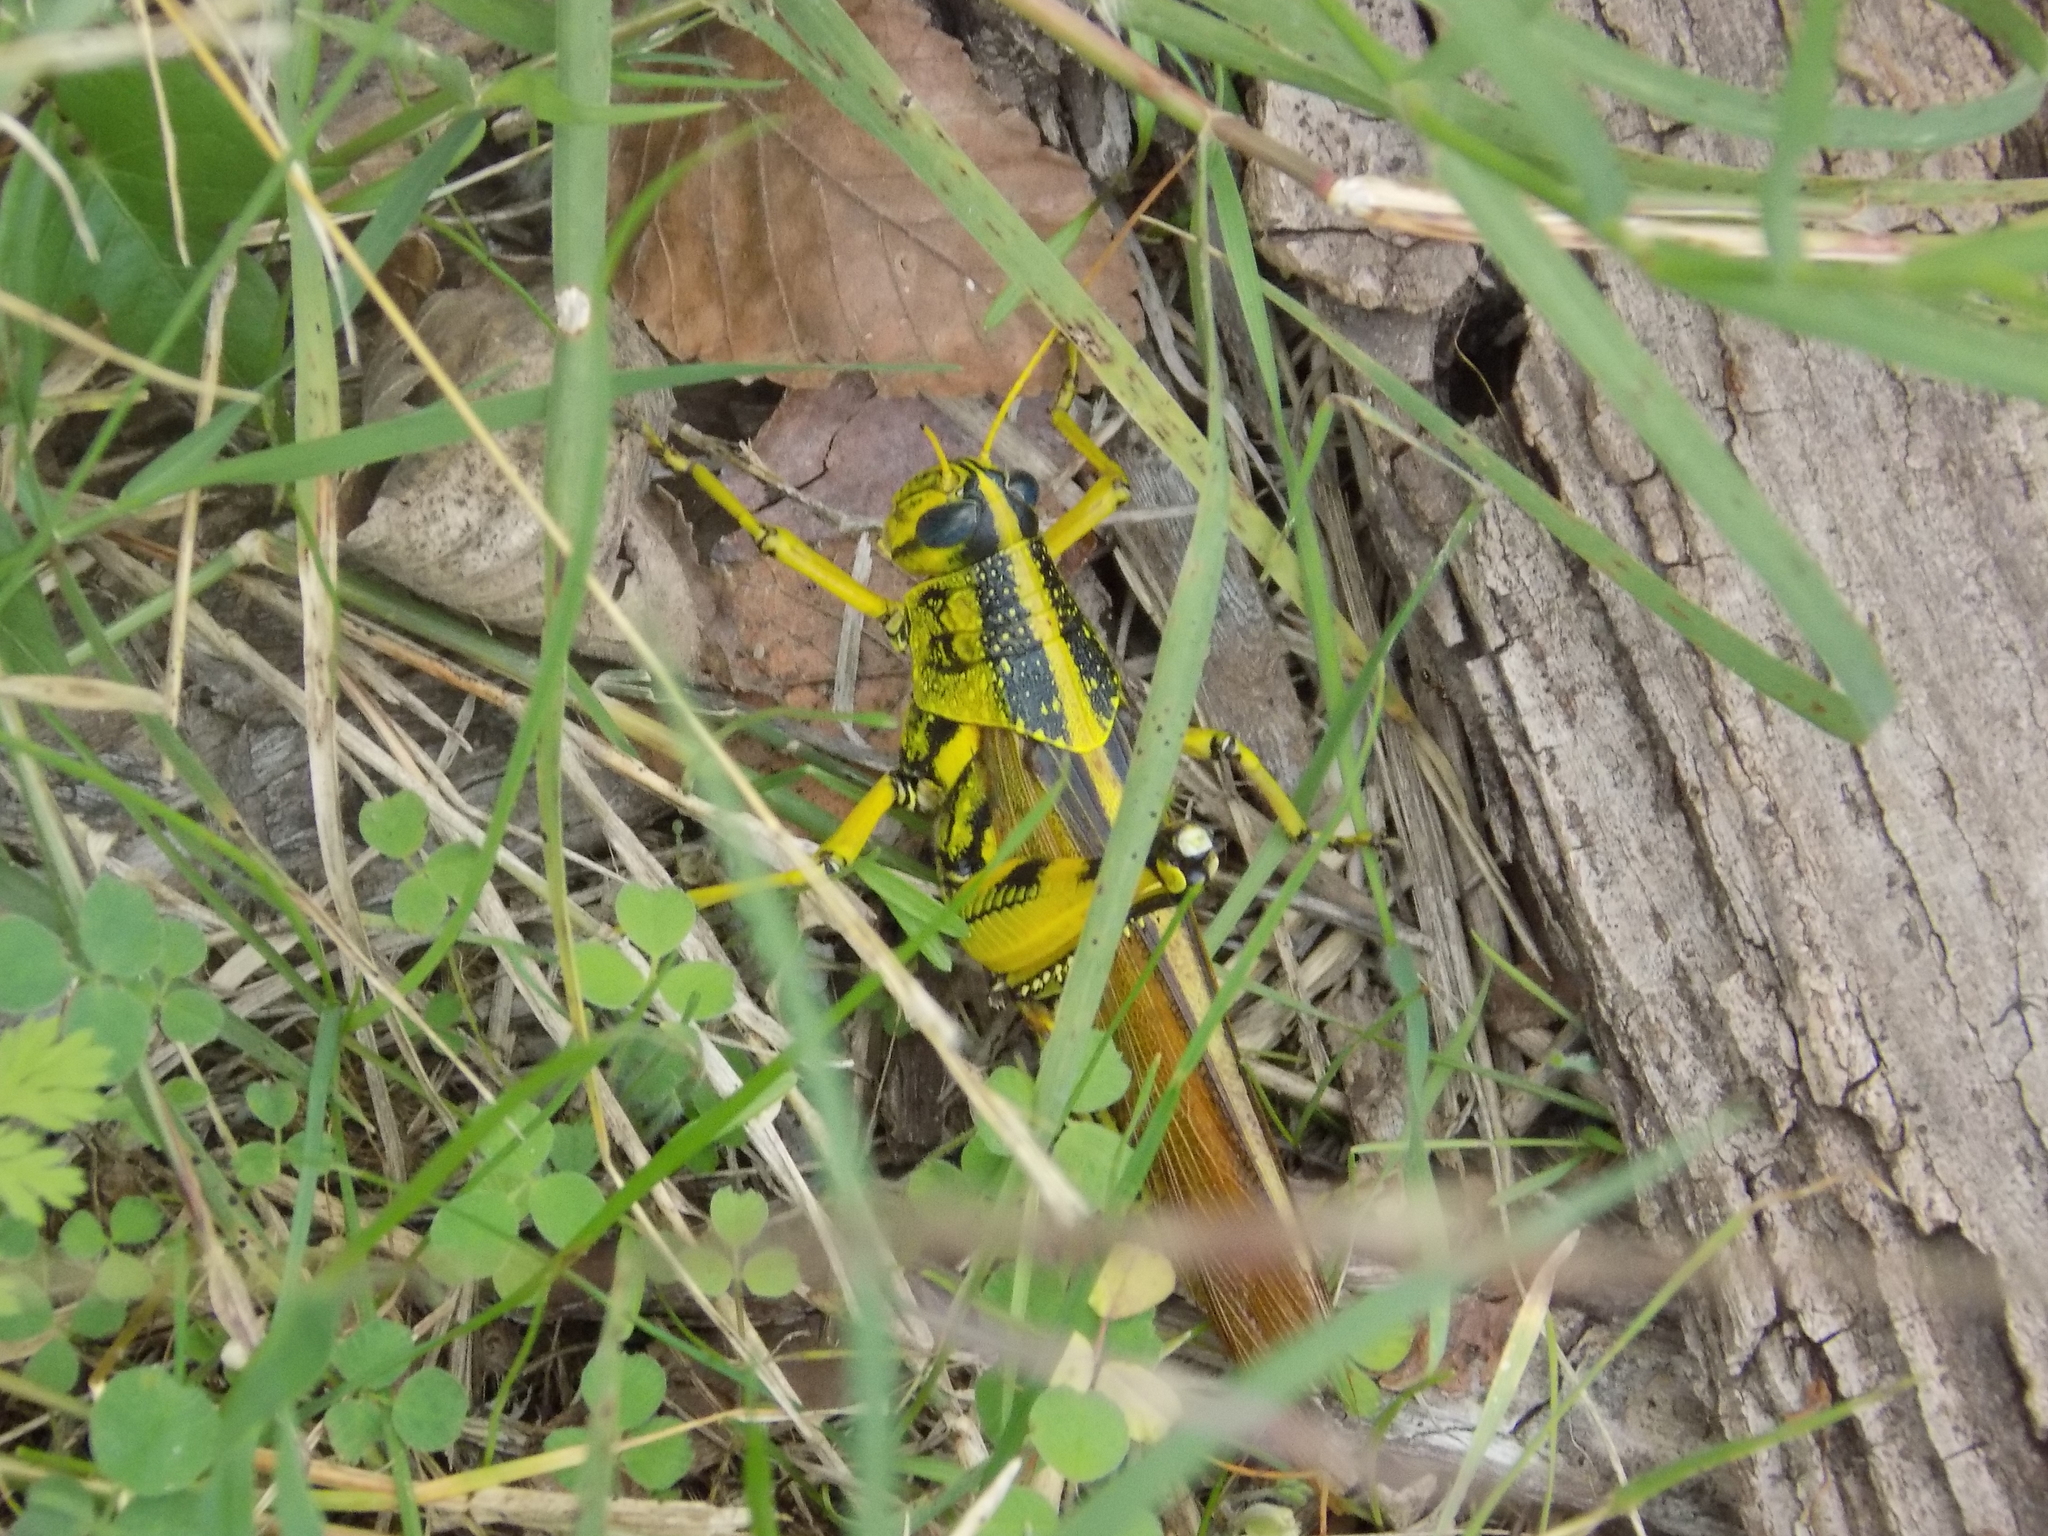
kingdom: Animalia
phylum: Arthropoda
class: Insecta
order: Orthoptera
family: Acrididae
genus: Schistocerca
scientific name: Schistocerca lineata
